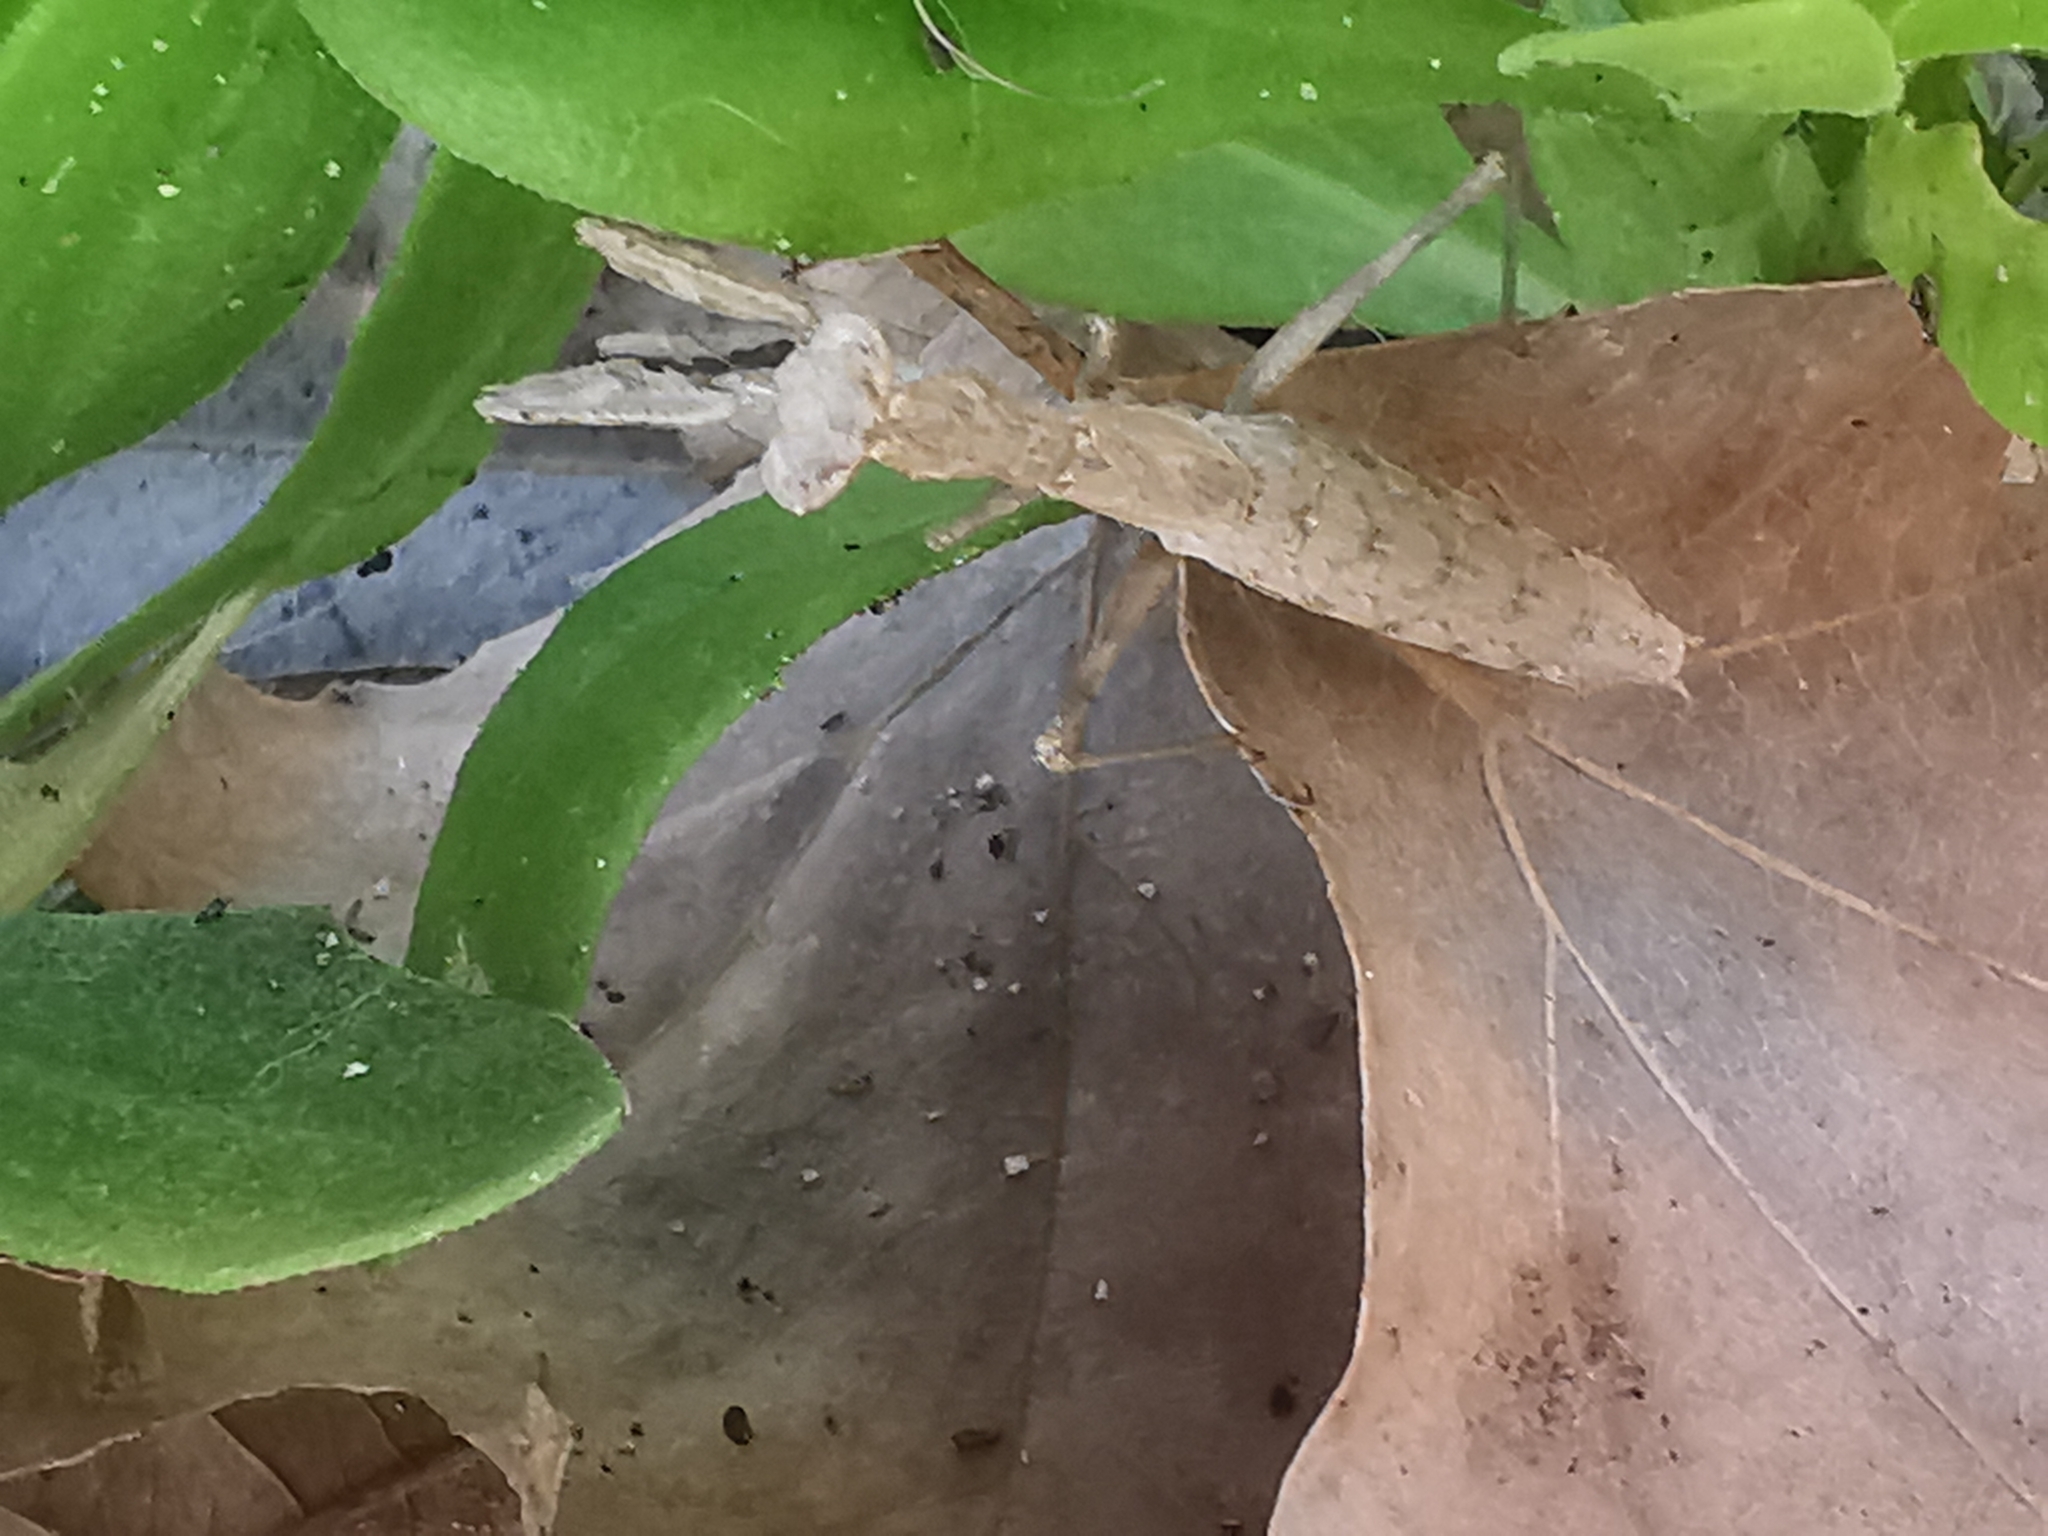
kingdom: Animalia
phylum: Arthropoda
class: Insecta
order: Mantodea
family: Amelidae
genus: Ameles
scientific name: Ameles heldreichi
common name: Heldreich's dwarf mantis
